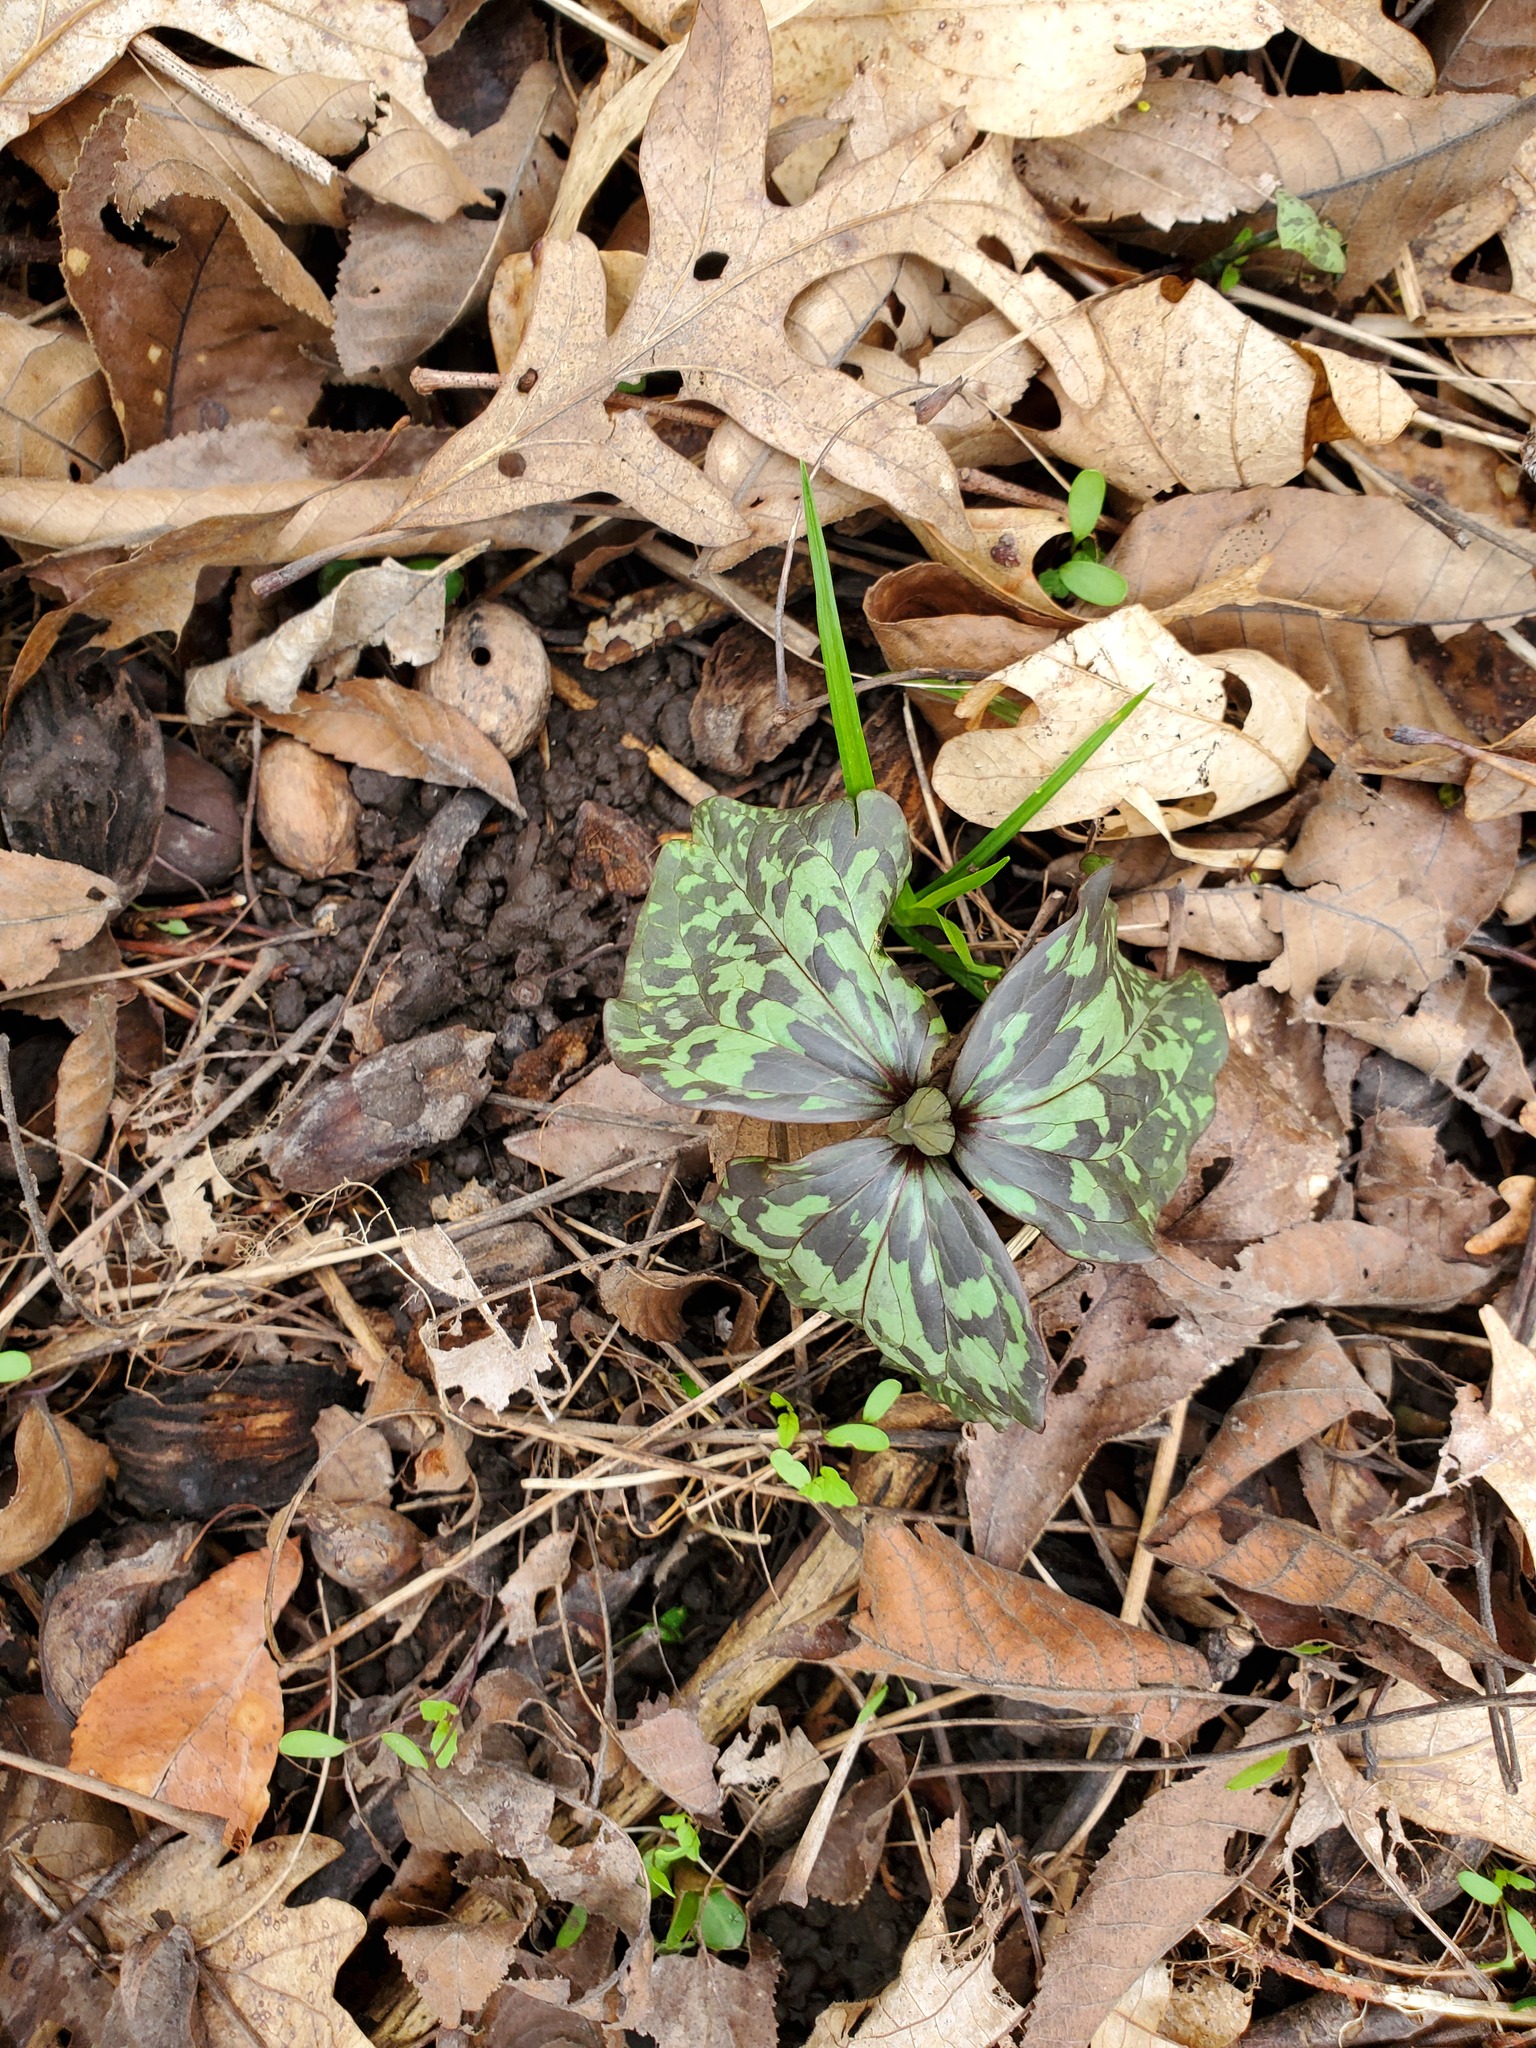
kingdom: Plantae
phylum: Tracheophyta
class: Liliopsida
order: Liliales
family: Melanthiaceae
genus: Trillium
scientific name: Trillium recurvatum
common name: Bloody butcher
